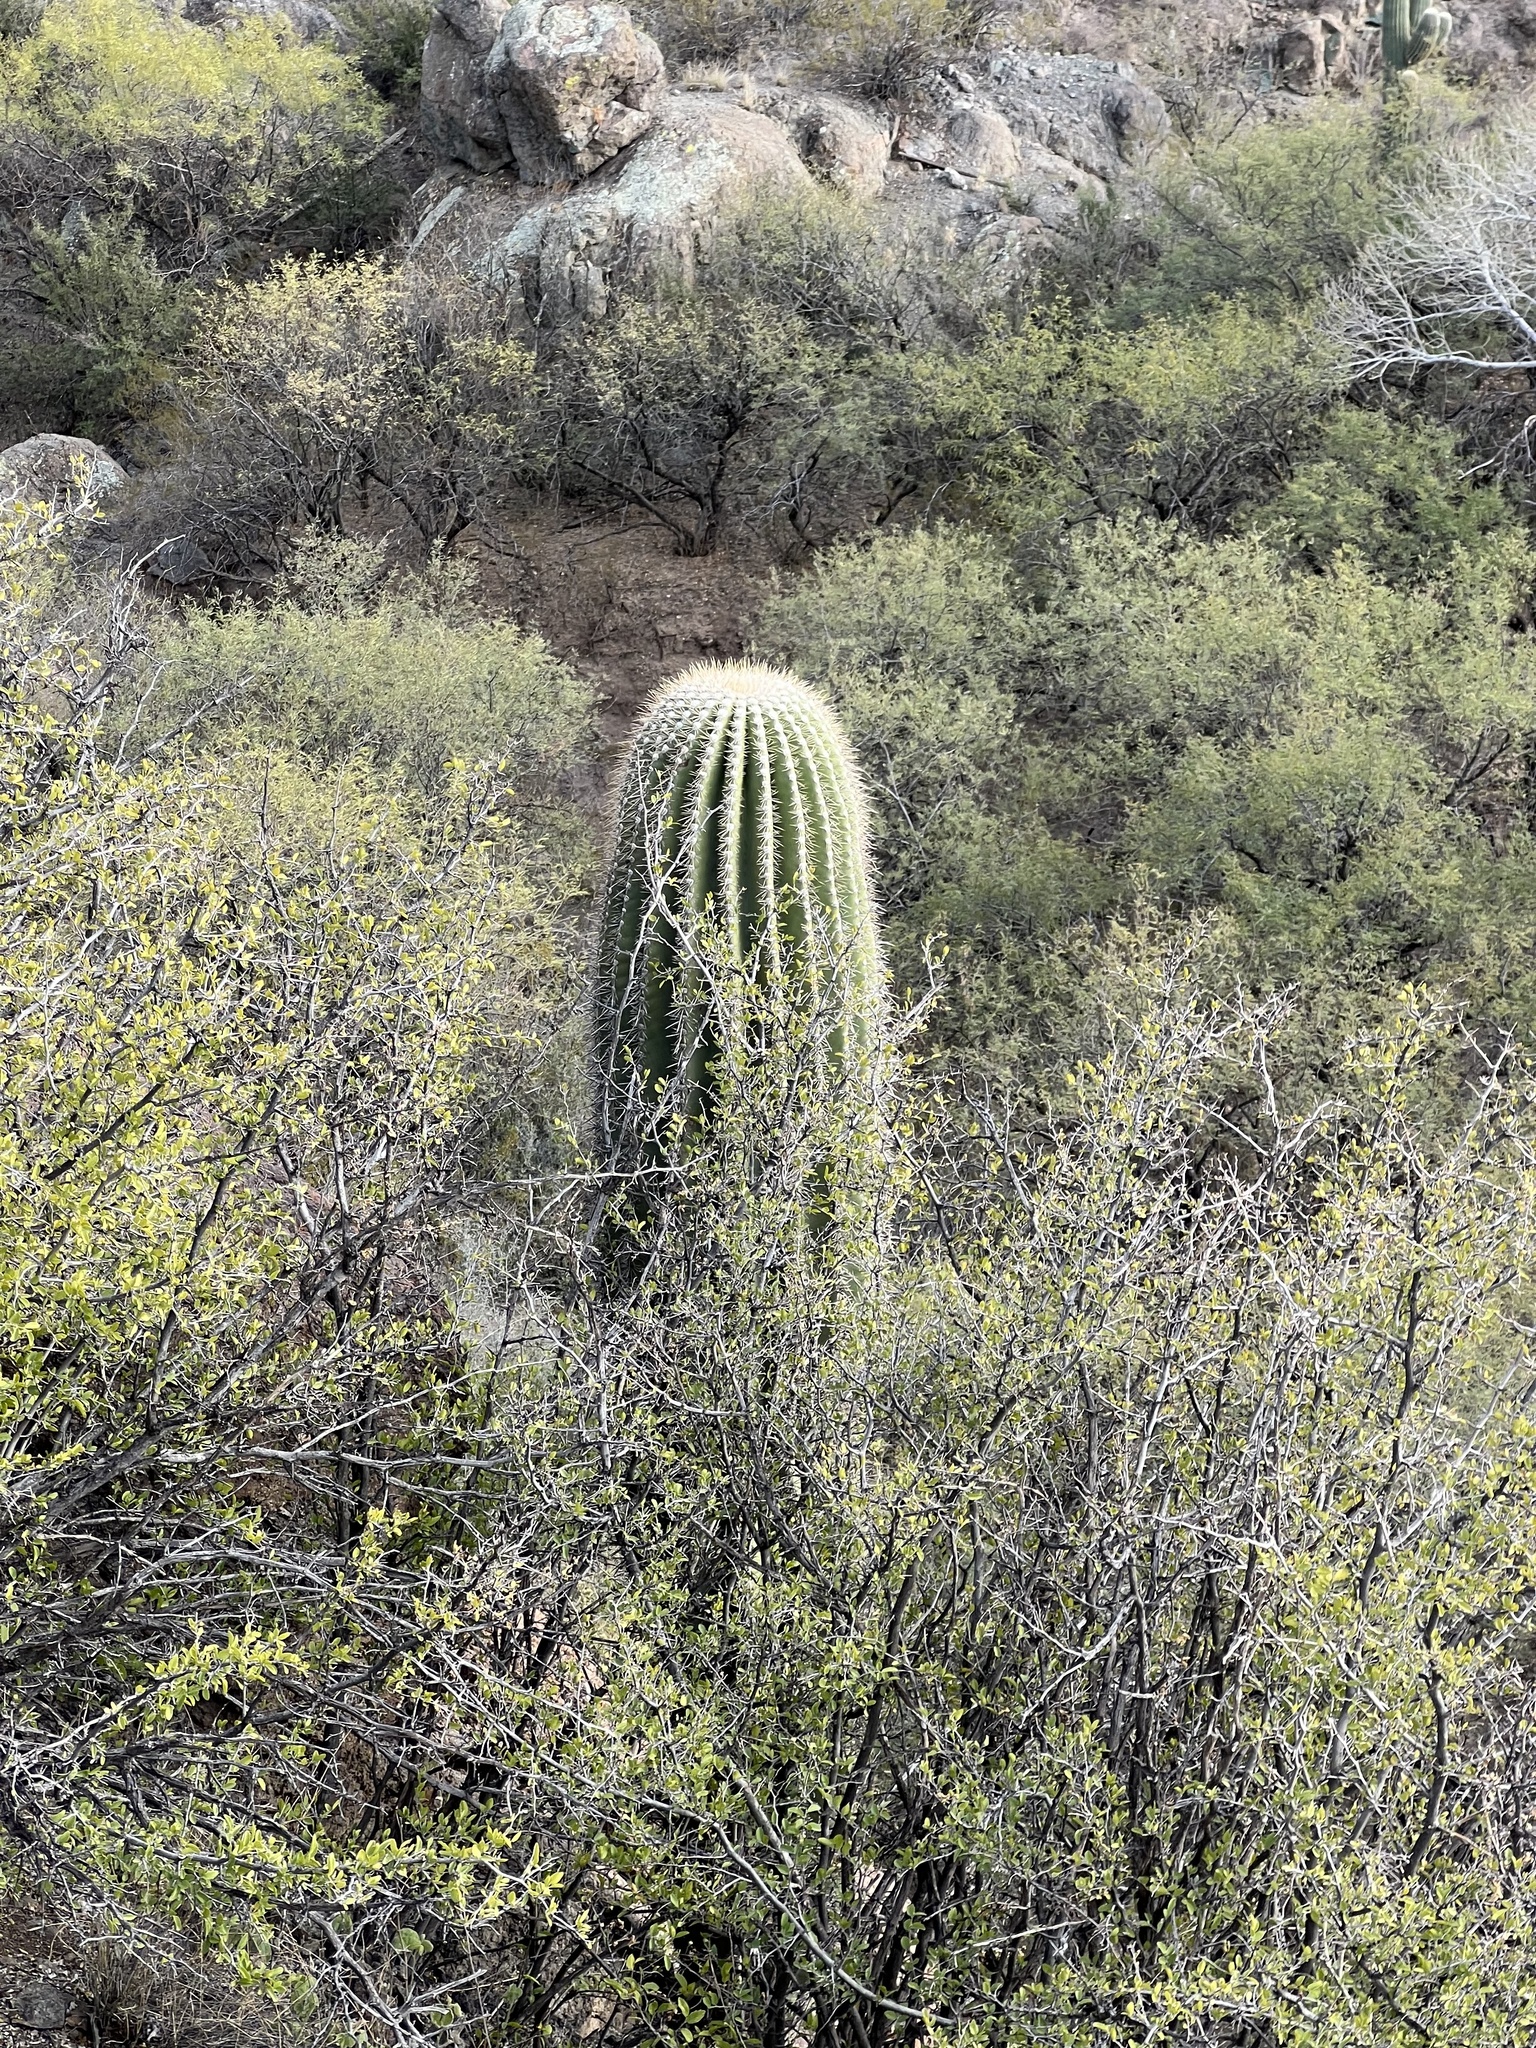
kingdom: Plantae
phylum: Tracheophyta
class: Magnoliopsida
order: Caryophyllales
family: Cactaceae
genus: Carnegiea
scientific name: Carnegiea gigantea
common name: Saguaro
